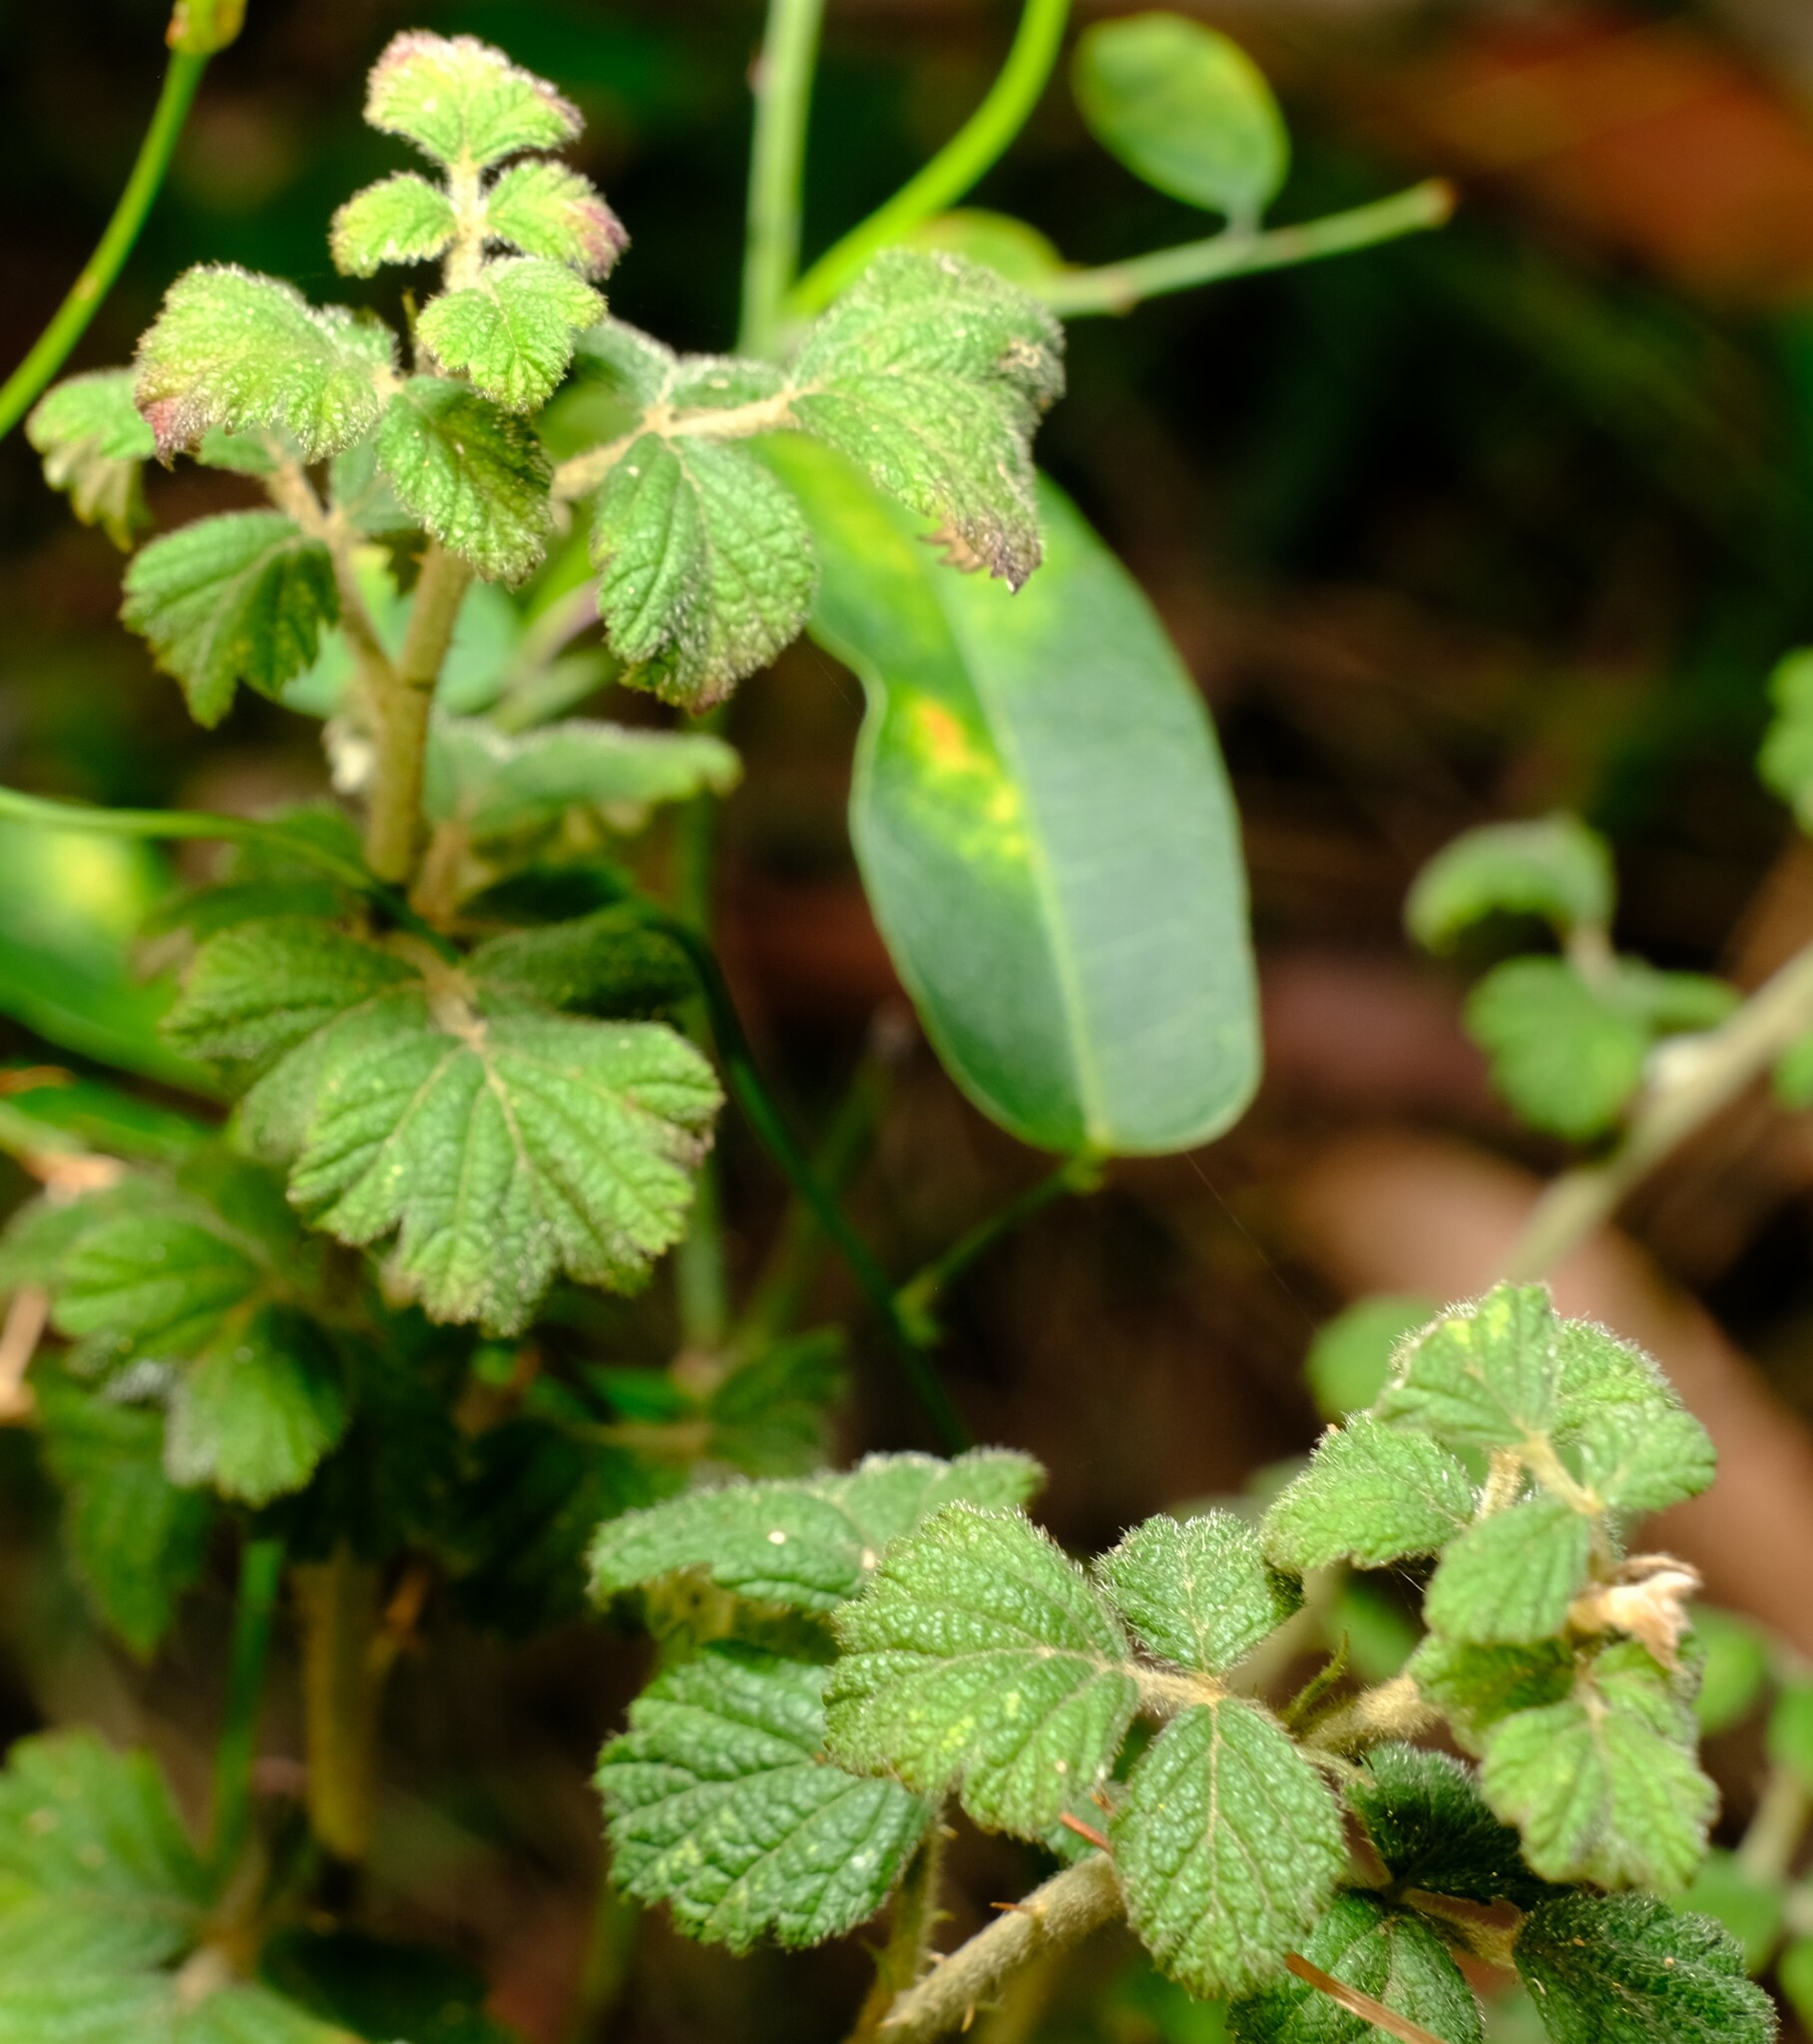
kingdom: Plantae
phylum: Tracheophyta
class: Magnoliopsida
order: Rosales
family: Rosaceae
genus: Rubus
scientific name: Rubus parvifolius
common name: Threeleaf blackberry
